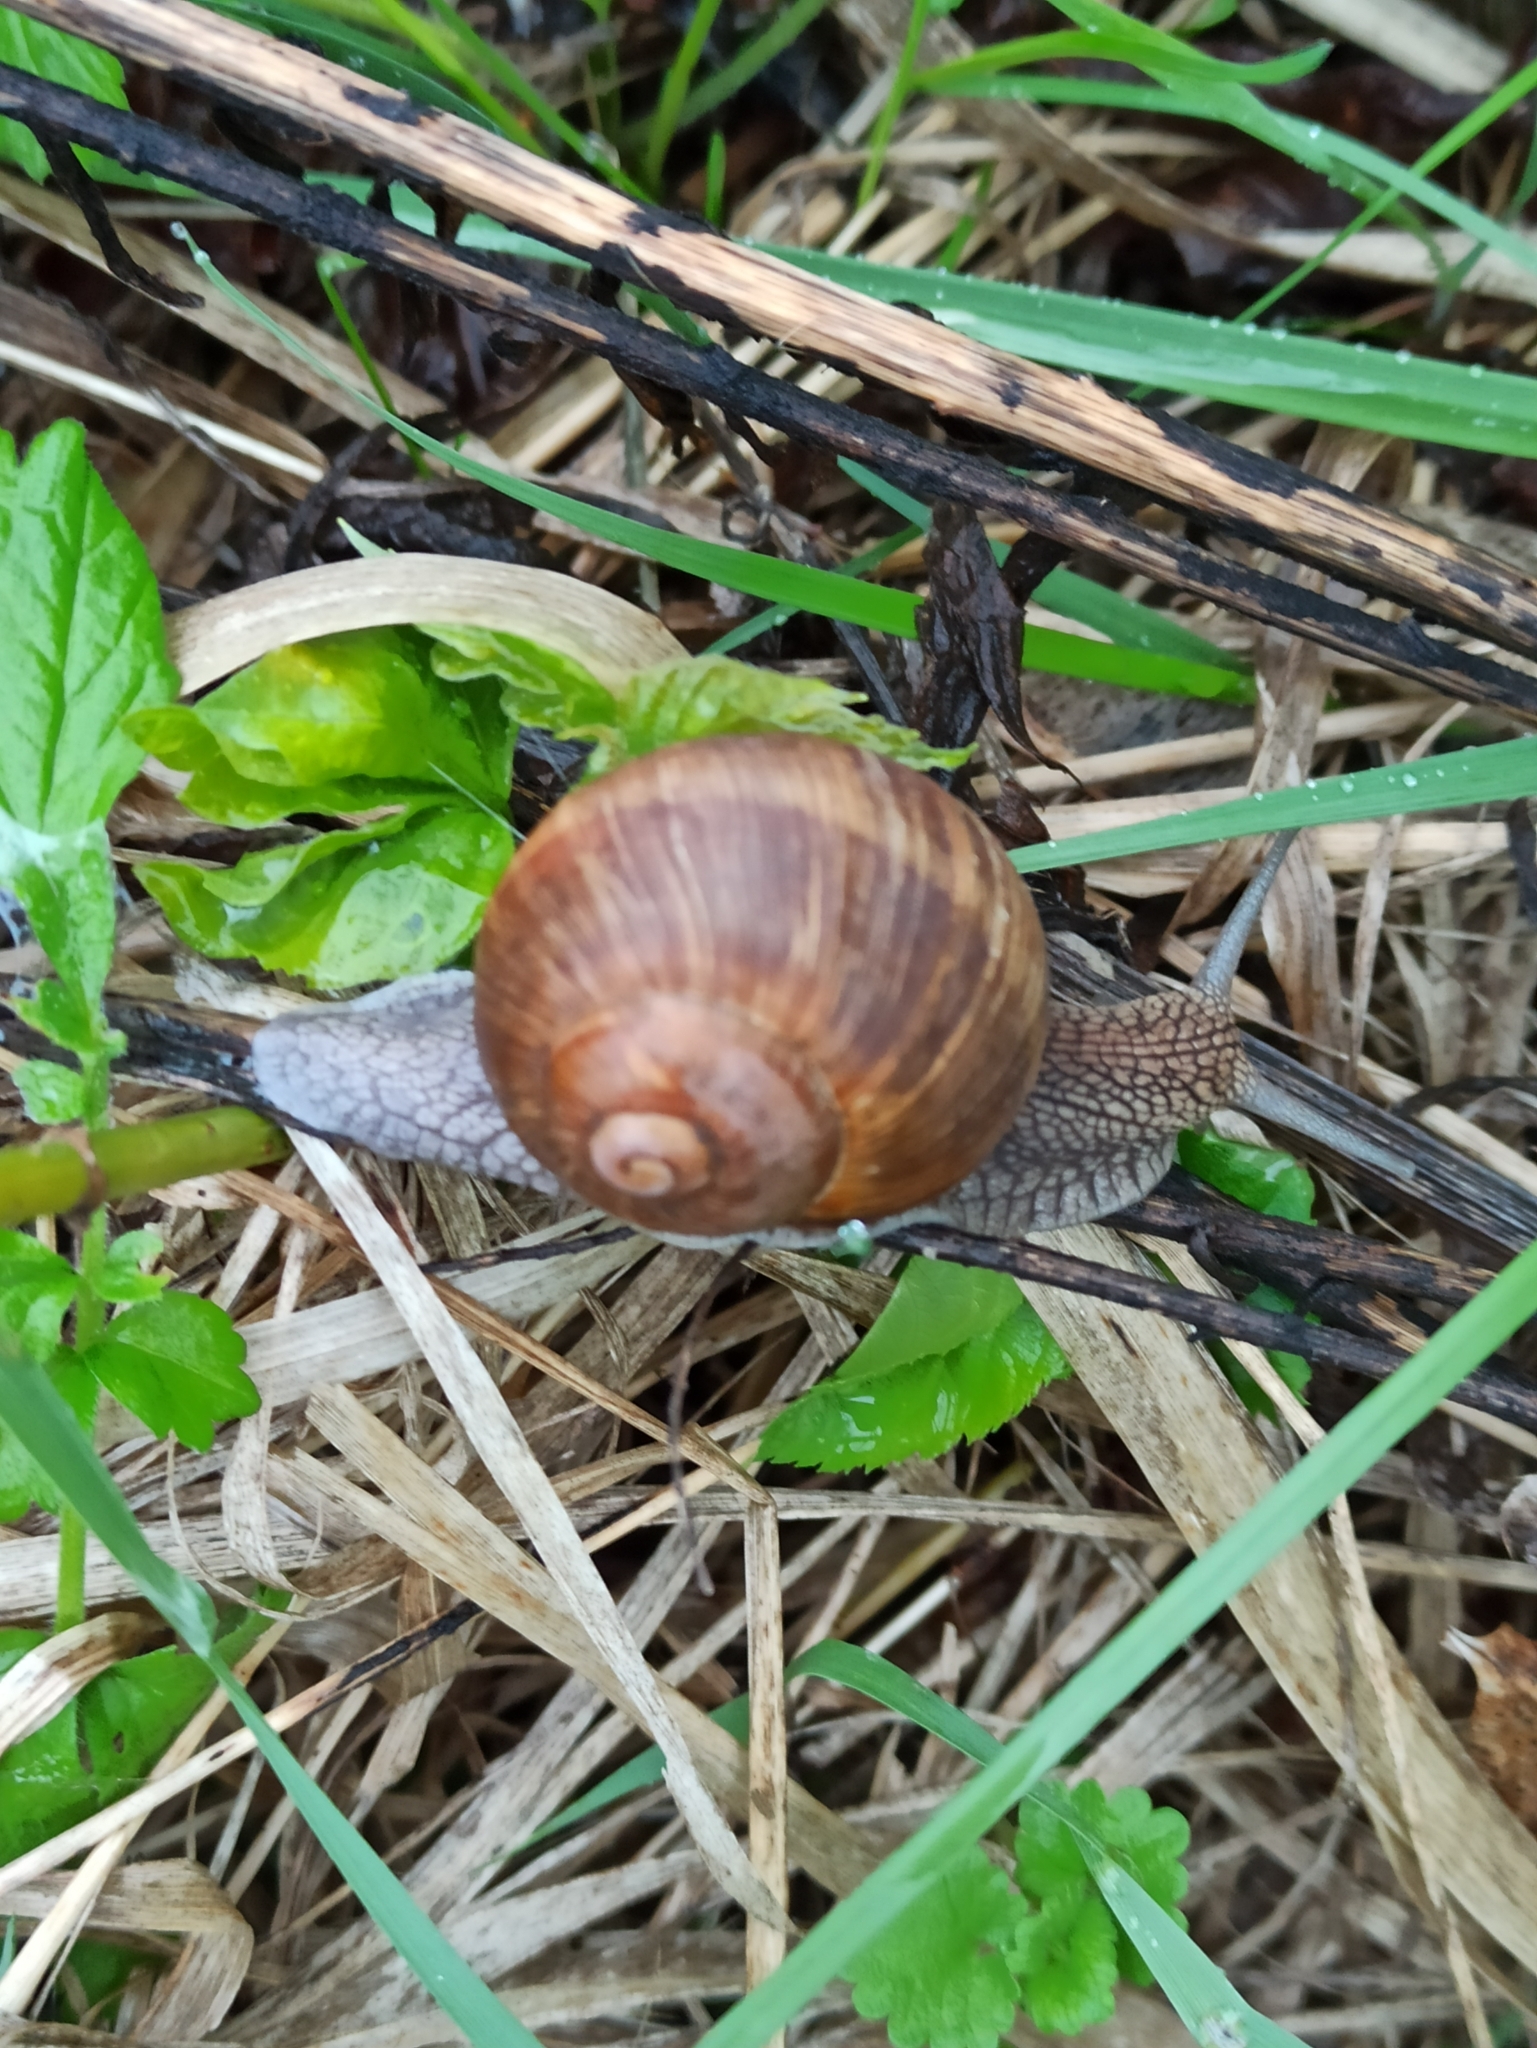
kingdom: Animalia
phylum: Mollusca
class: Gastropoda
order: Stylommatophora
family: Helicidae
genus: Helix
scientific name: Helix pomatia
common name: Roman snail
